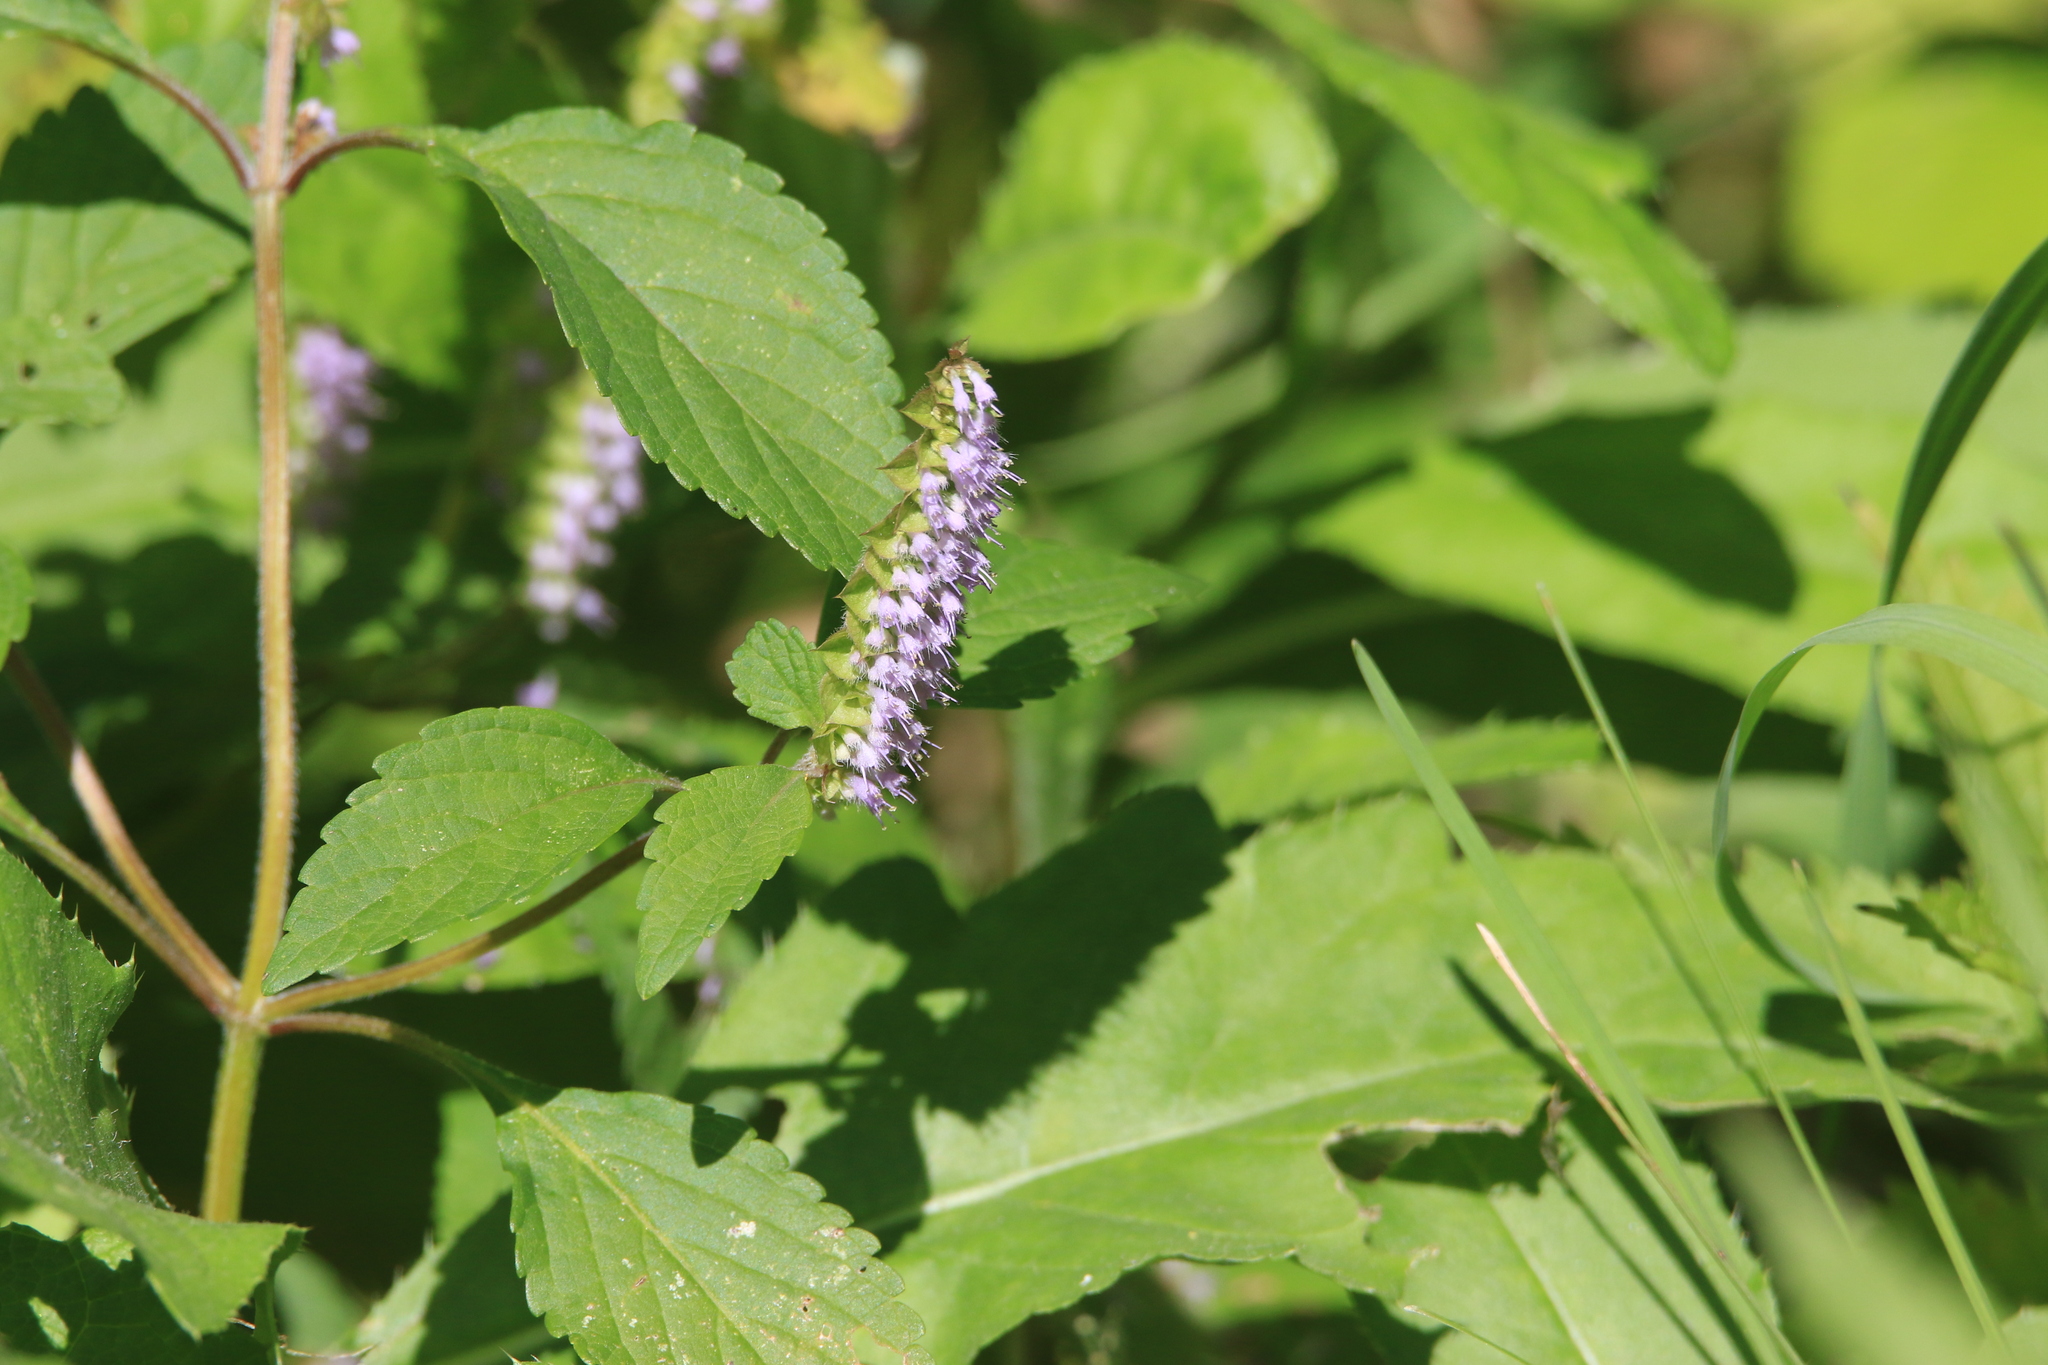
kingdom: Plantae
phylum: Tracheophyta
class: Magnoliopsida
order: Lamiales
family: Lamiaceae
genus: Elsholtzia
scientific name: Elsholtzia ciliata
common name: Ciliate elsholtzia
